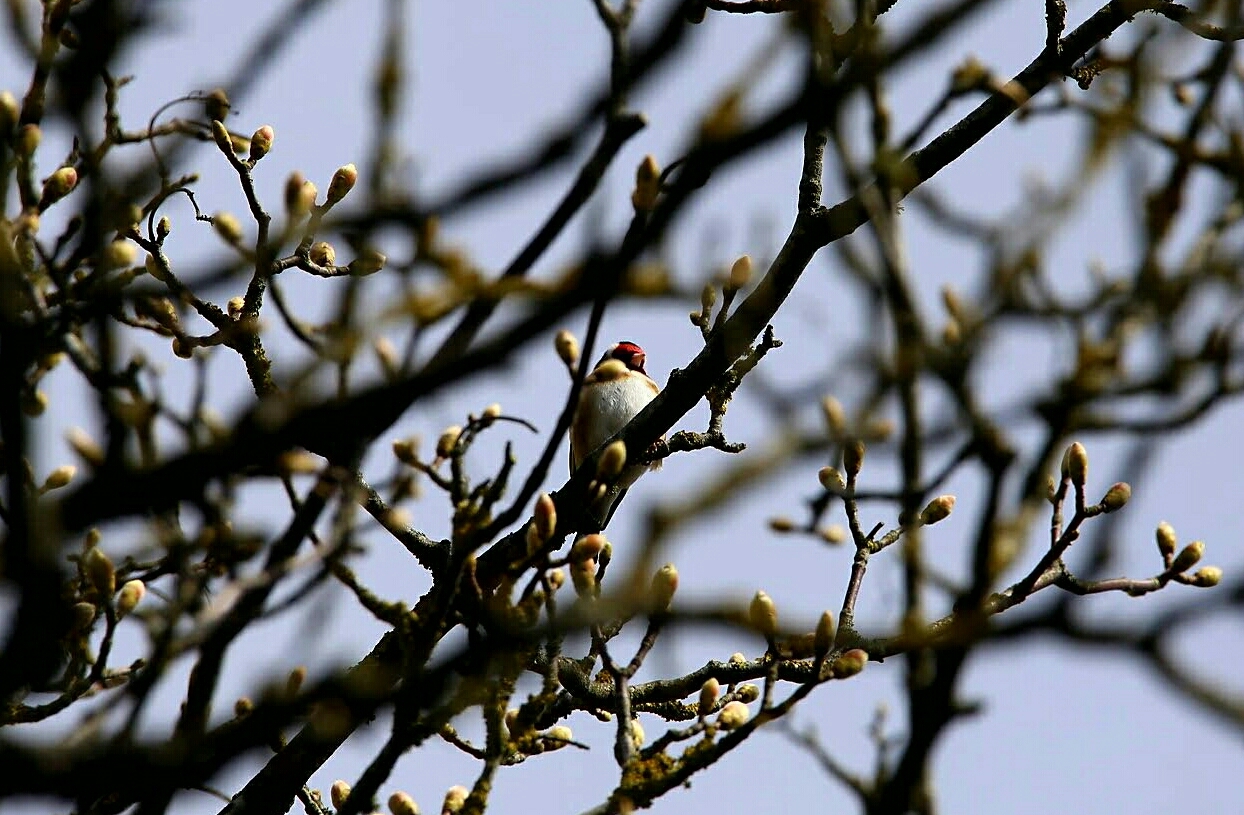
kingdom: Animalia
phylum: Chordata
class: Aves
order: Passeriformes
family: Fringillidae
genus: Carduelis
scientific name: Carduelis carduelis
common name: European goldfinch
